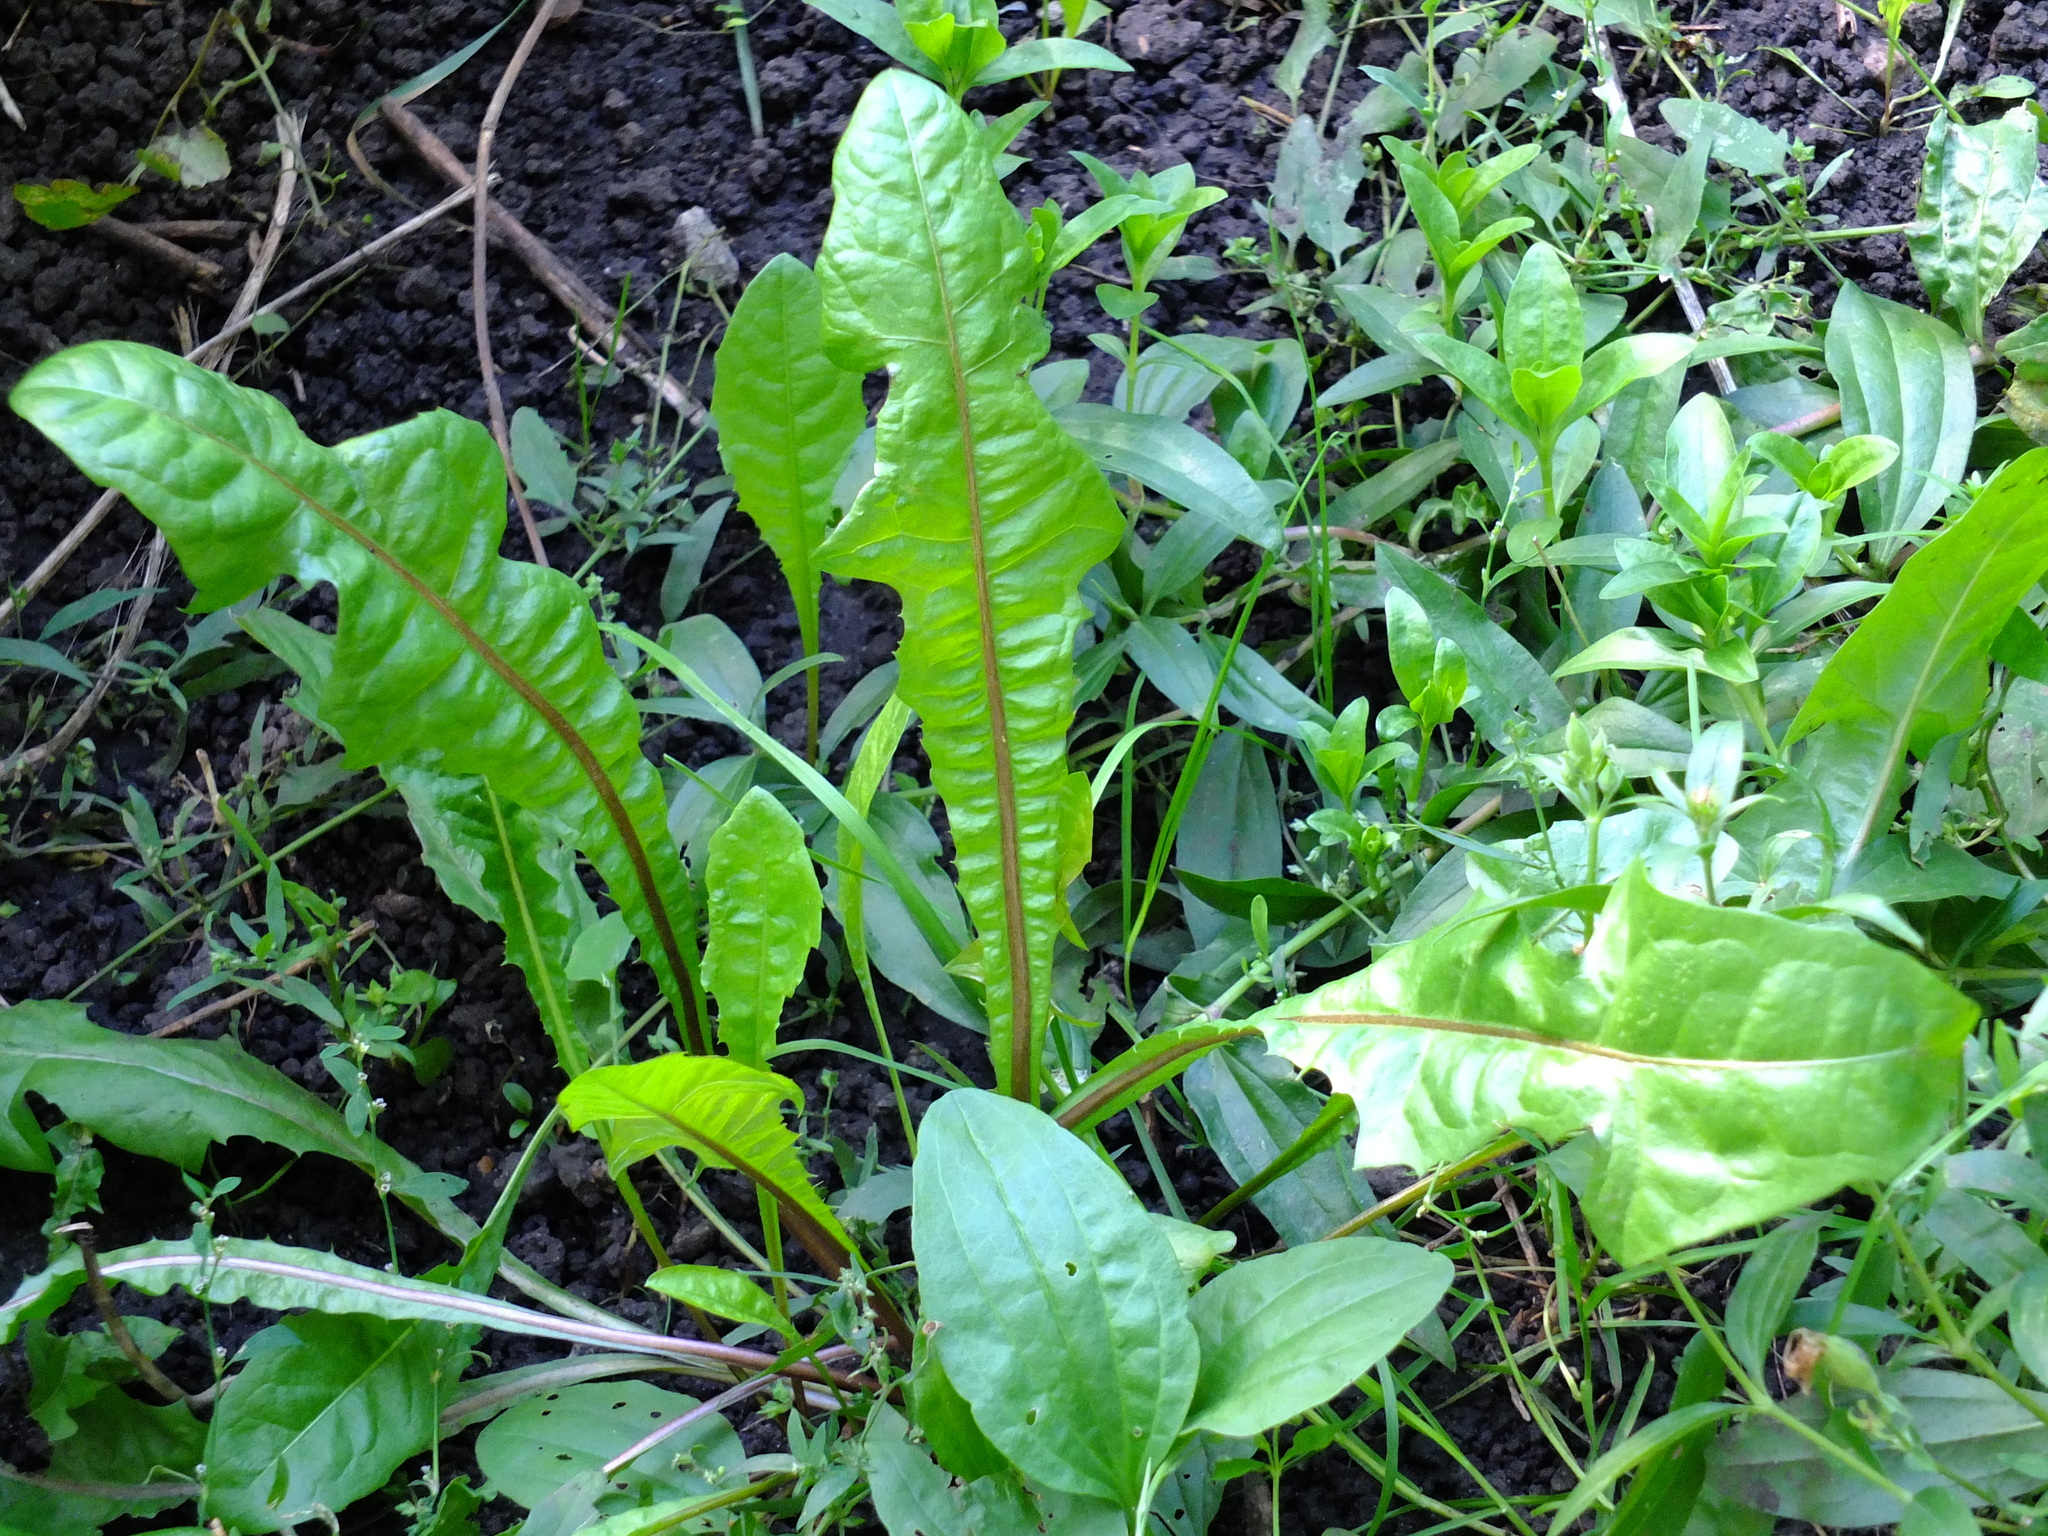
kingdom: Plantae
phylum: Tracheophyta
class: Magnoliopsida
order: Asterales
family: Asteraceae
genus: Taraxacum
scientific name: Taraxacum officinale
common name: Common dandelion
